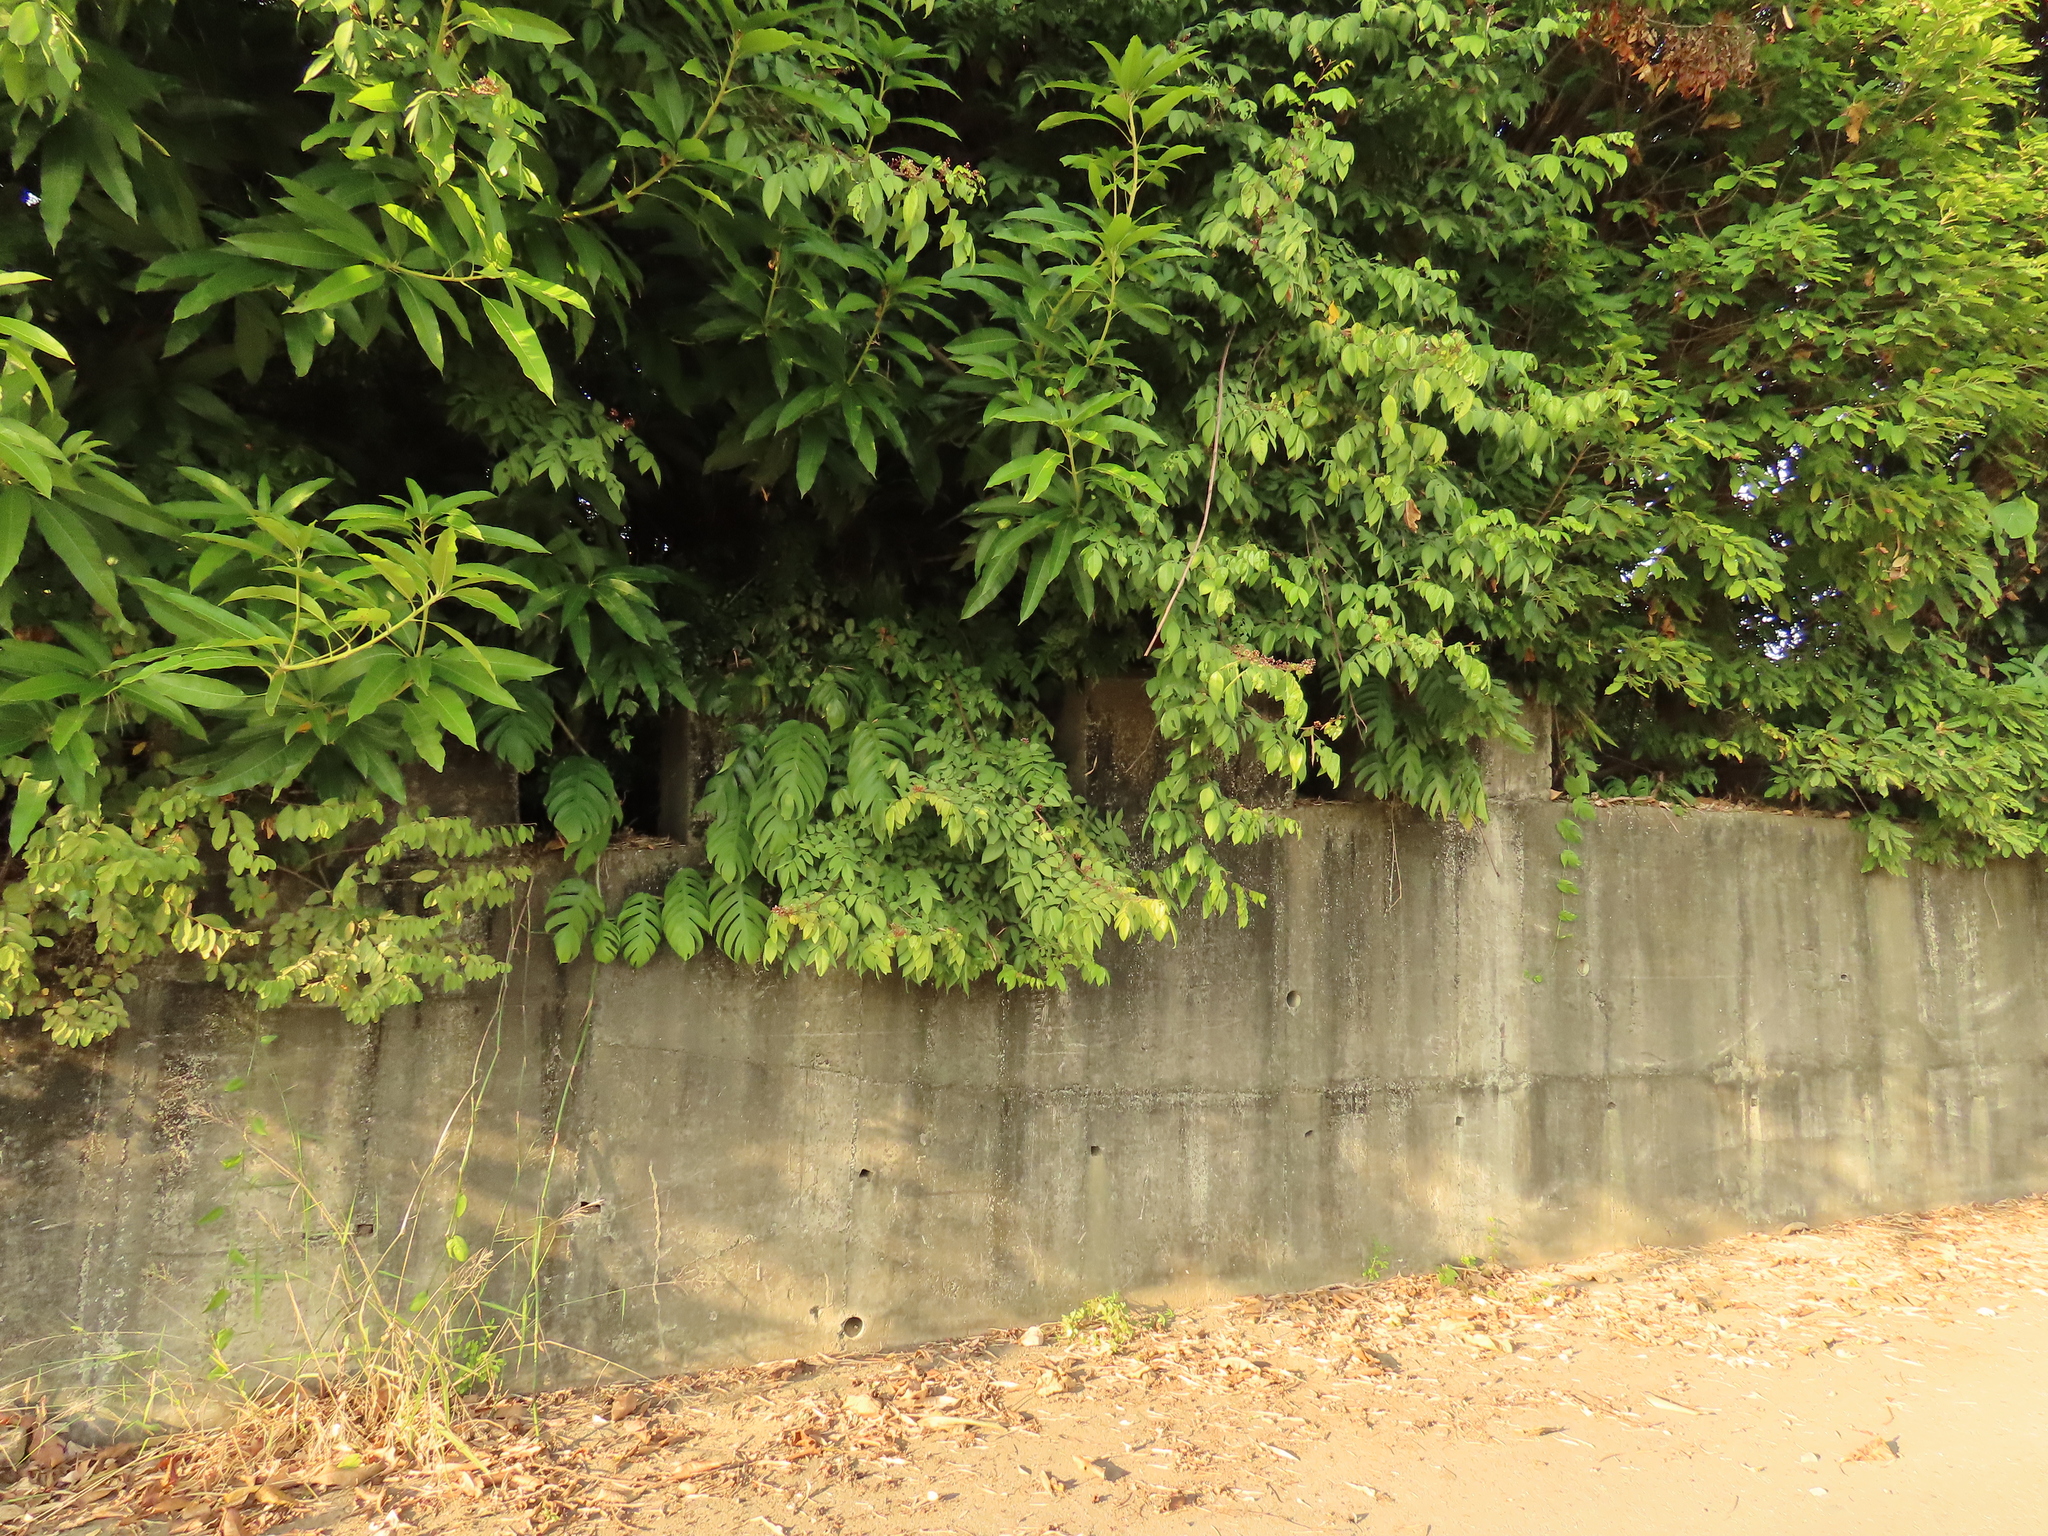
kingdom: Plantae
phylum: Tracheophyta
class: Liliopsida
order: Alismatales
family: Araceae
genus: Epipremnum
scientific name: Epipremnum pinnatum
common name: Centipede tongavine
